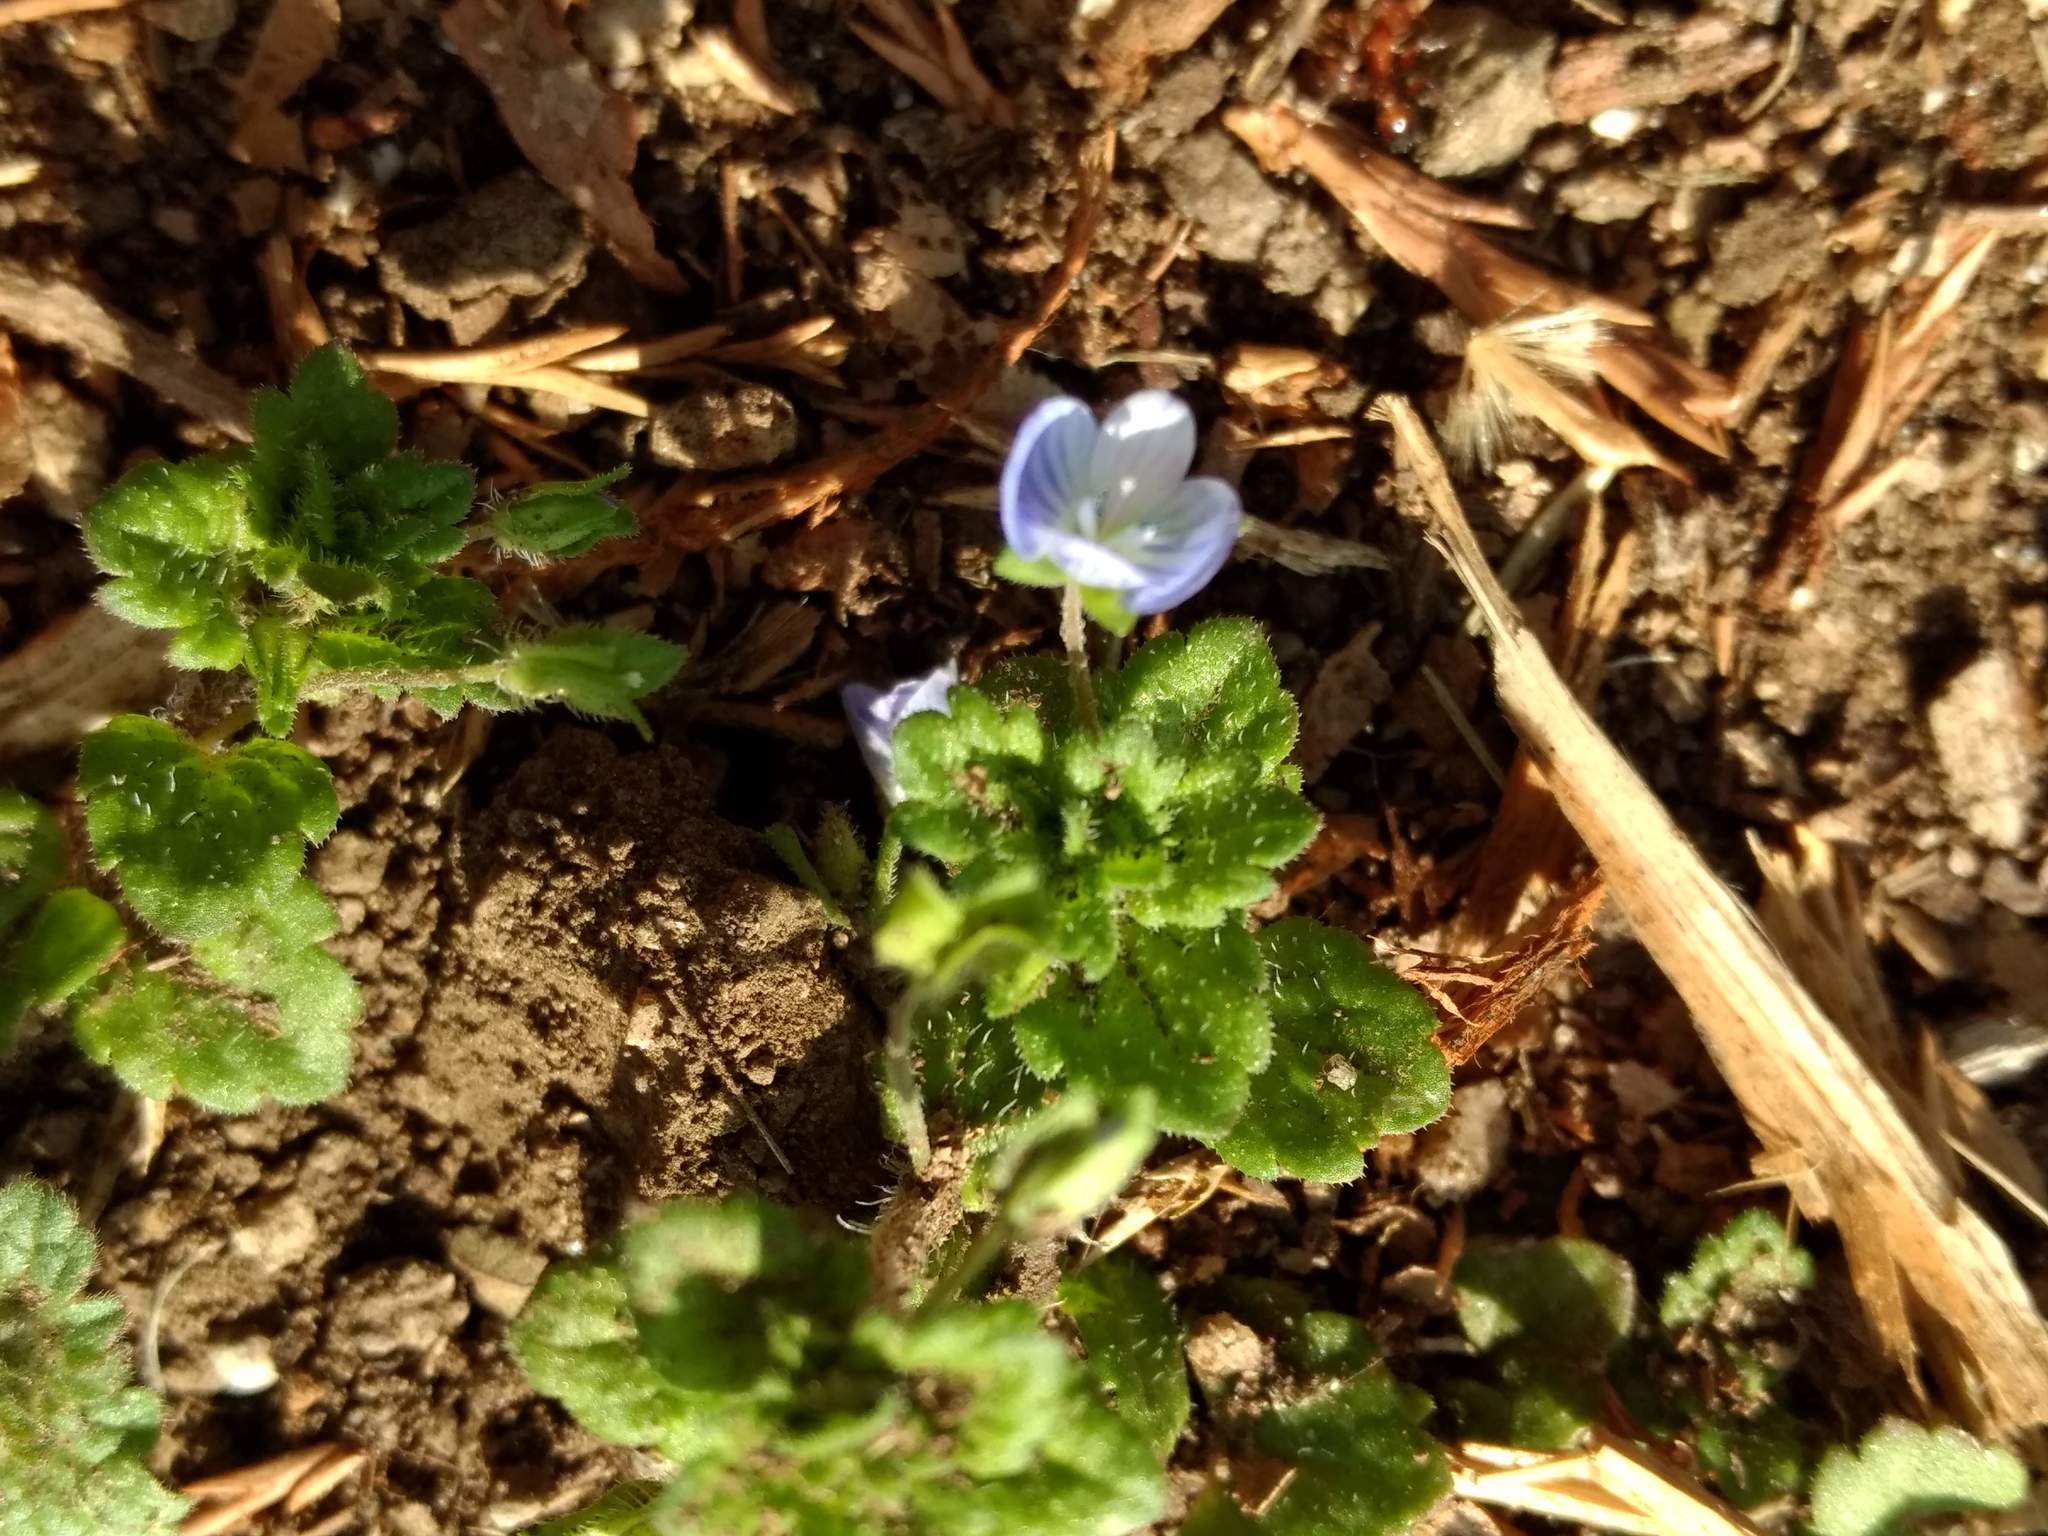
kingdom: Plantae
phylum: Tracheophyta
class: Magnoliopsida
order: Lamiales
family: Plantaginaceae
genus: Veronica
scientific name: Veronica persica
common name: Common field-speedwell
